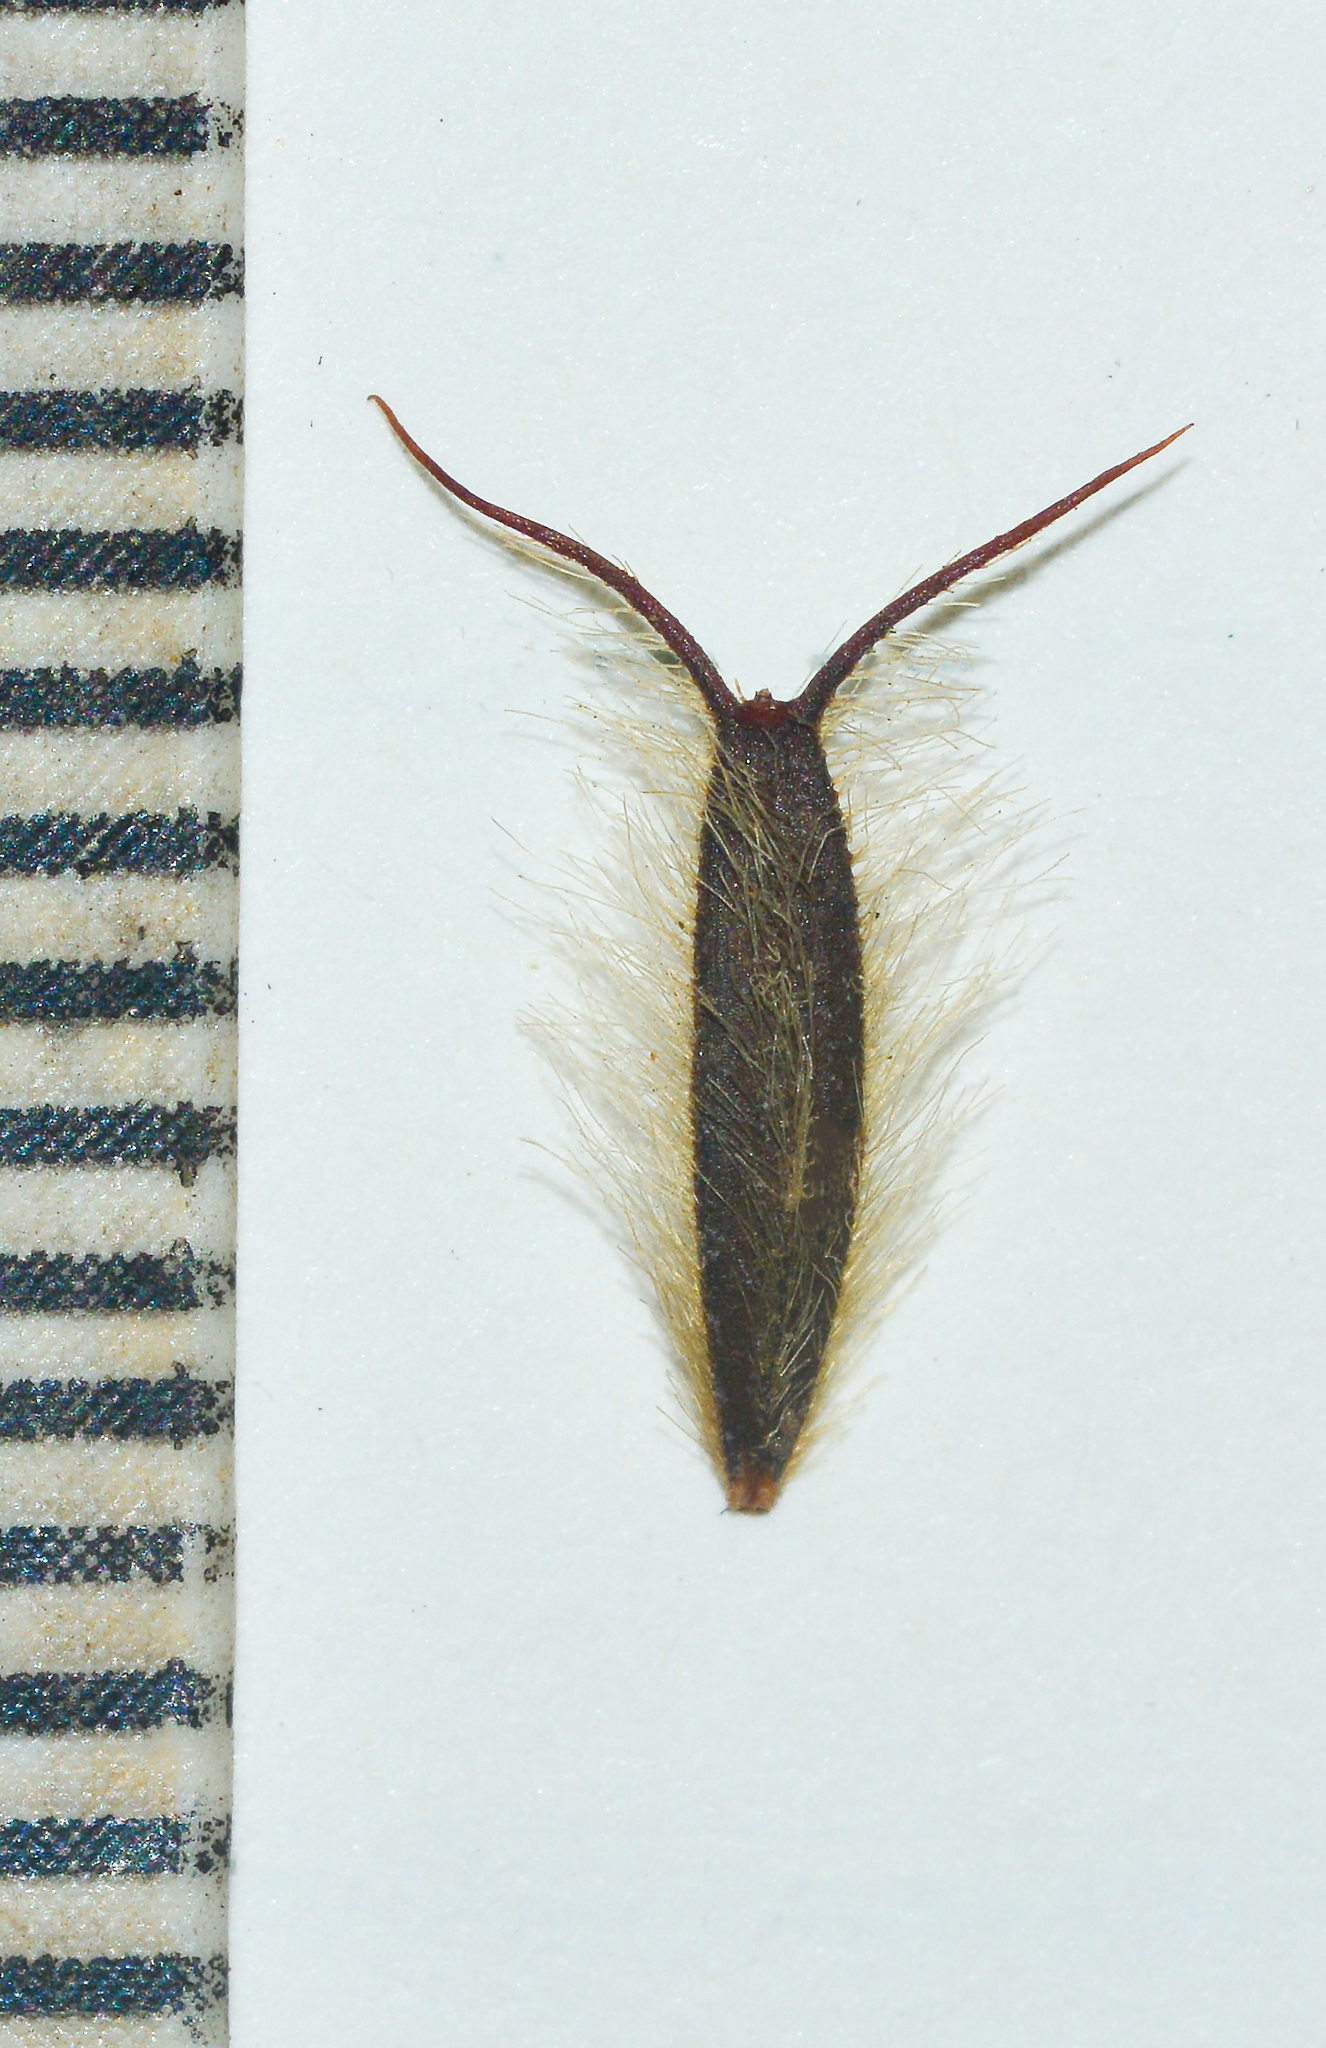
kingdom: Plantae
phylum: Tracheophyta
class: Magnoliopsida
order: Asterales
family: Asteraceae
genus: Glossocardia
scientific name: Glossocardia bosvallia
